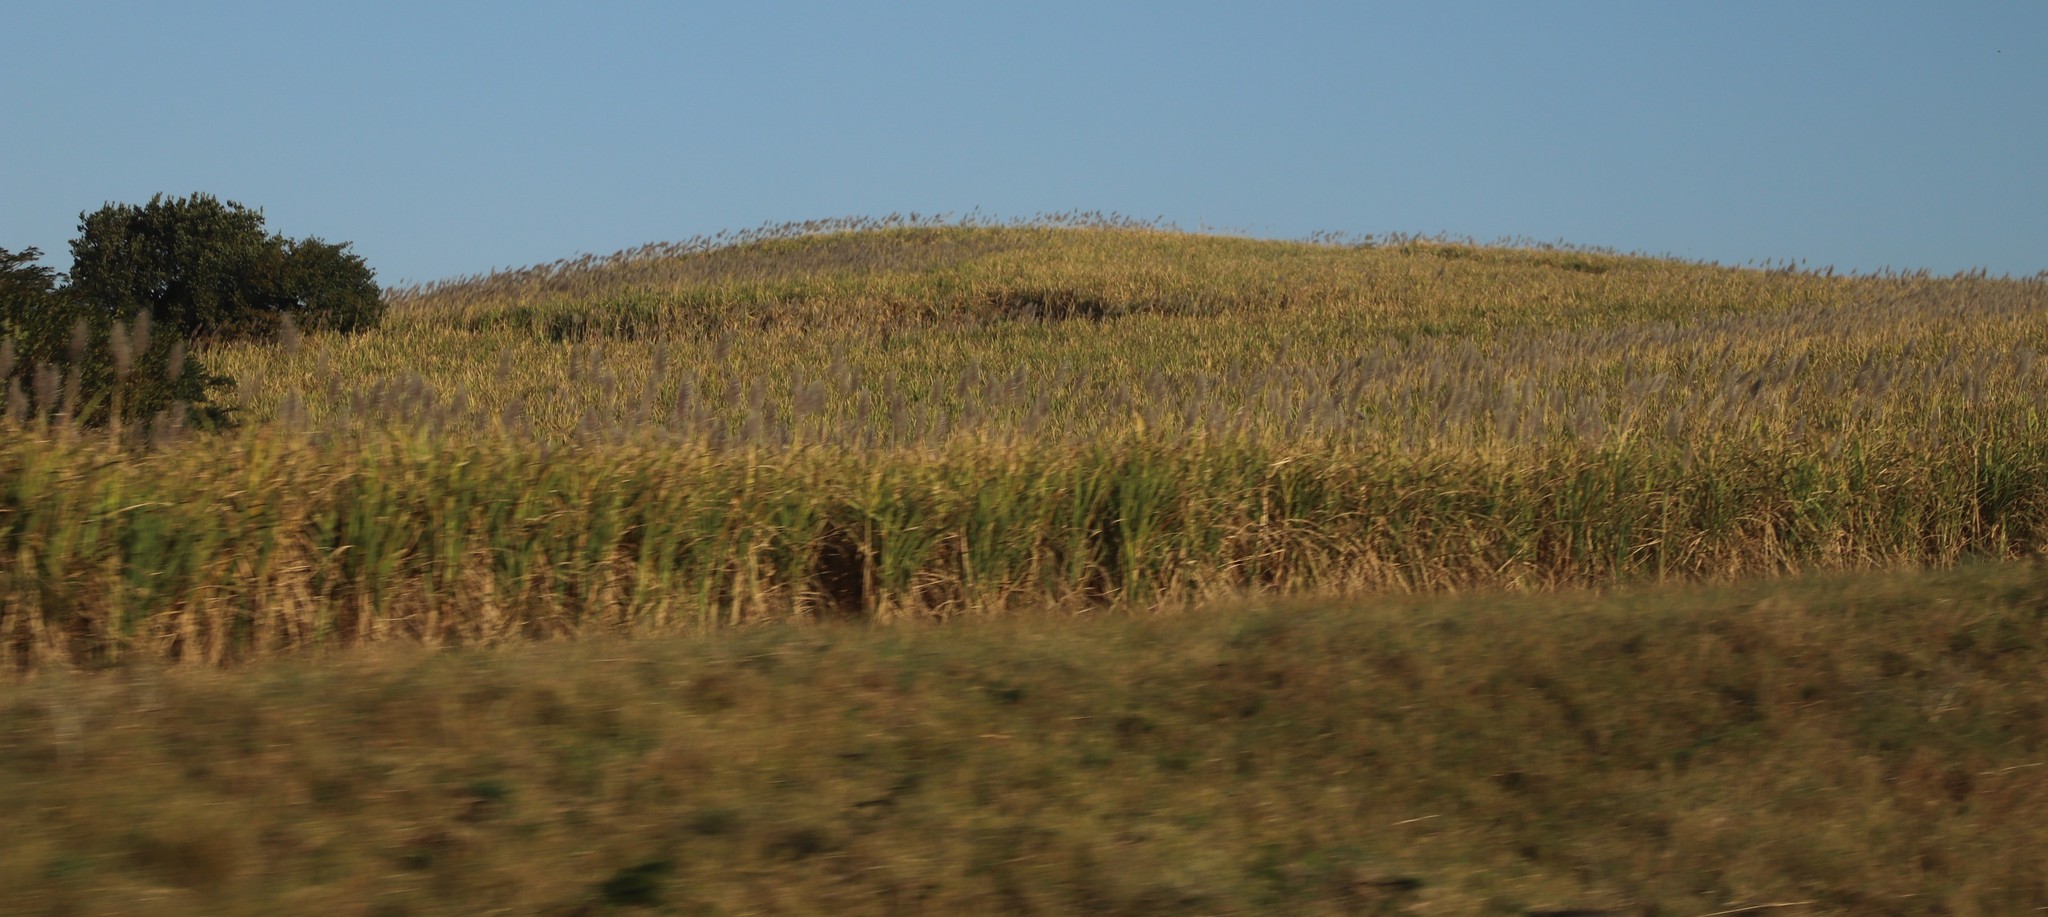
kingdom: Plantae
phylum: Tracheophyta
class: Liliopsida
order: Poales
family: Poaceae
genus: Saccharum
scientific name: Saccharum officinarum
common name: Sugarcane
